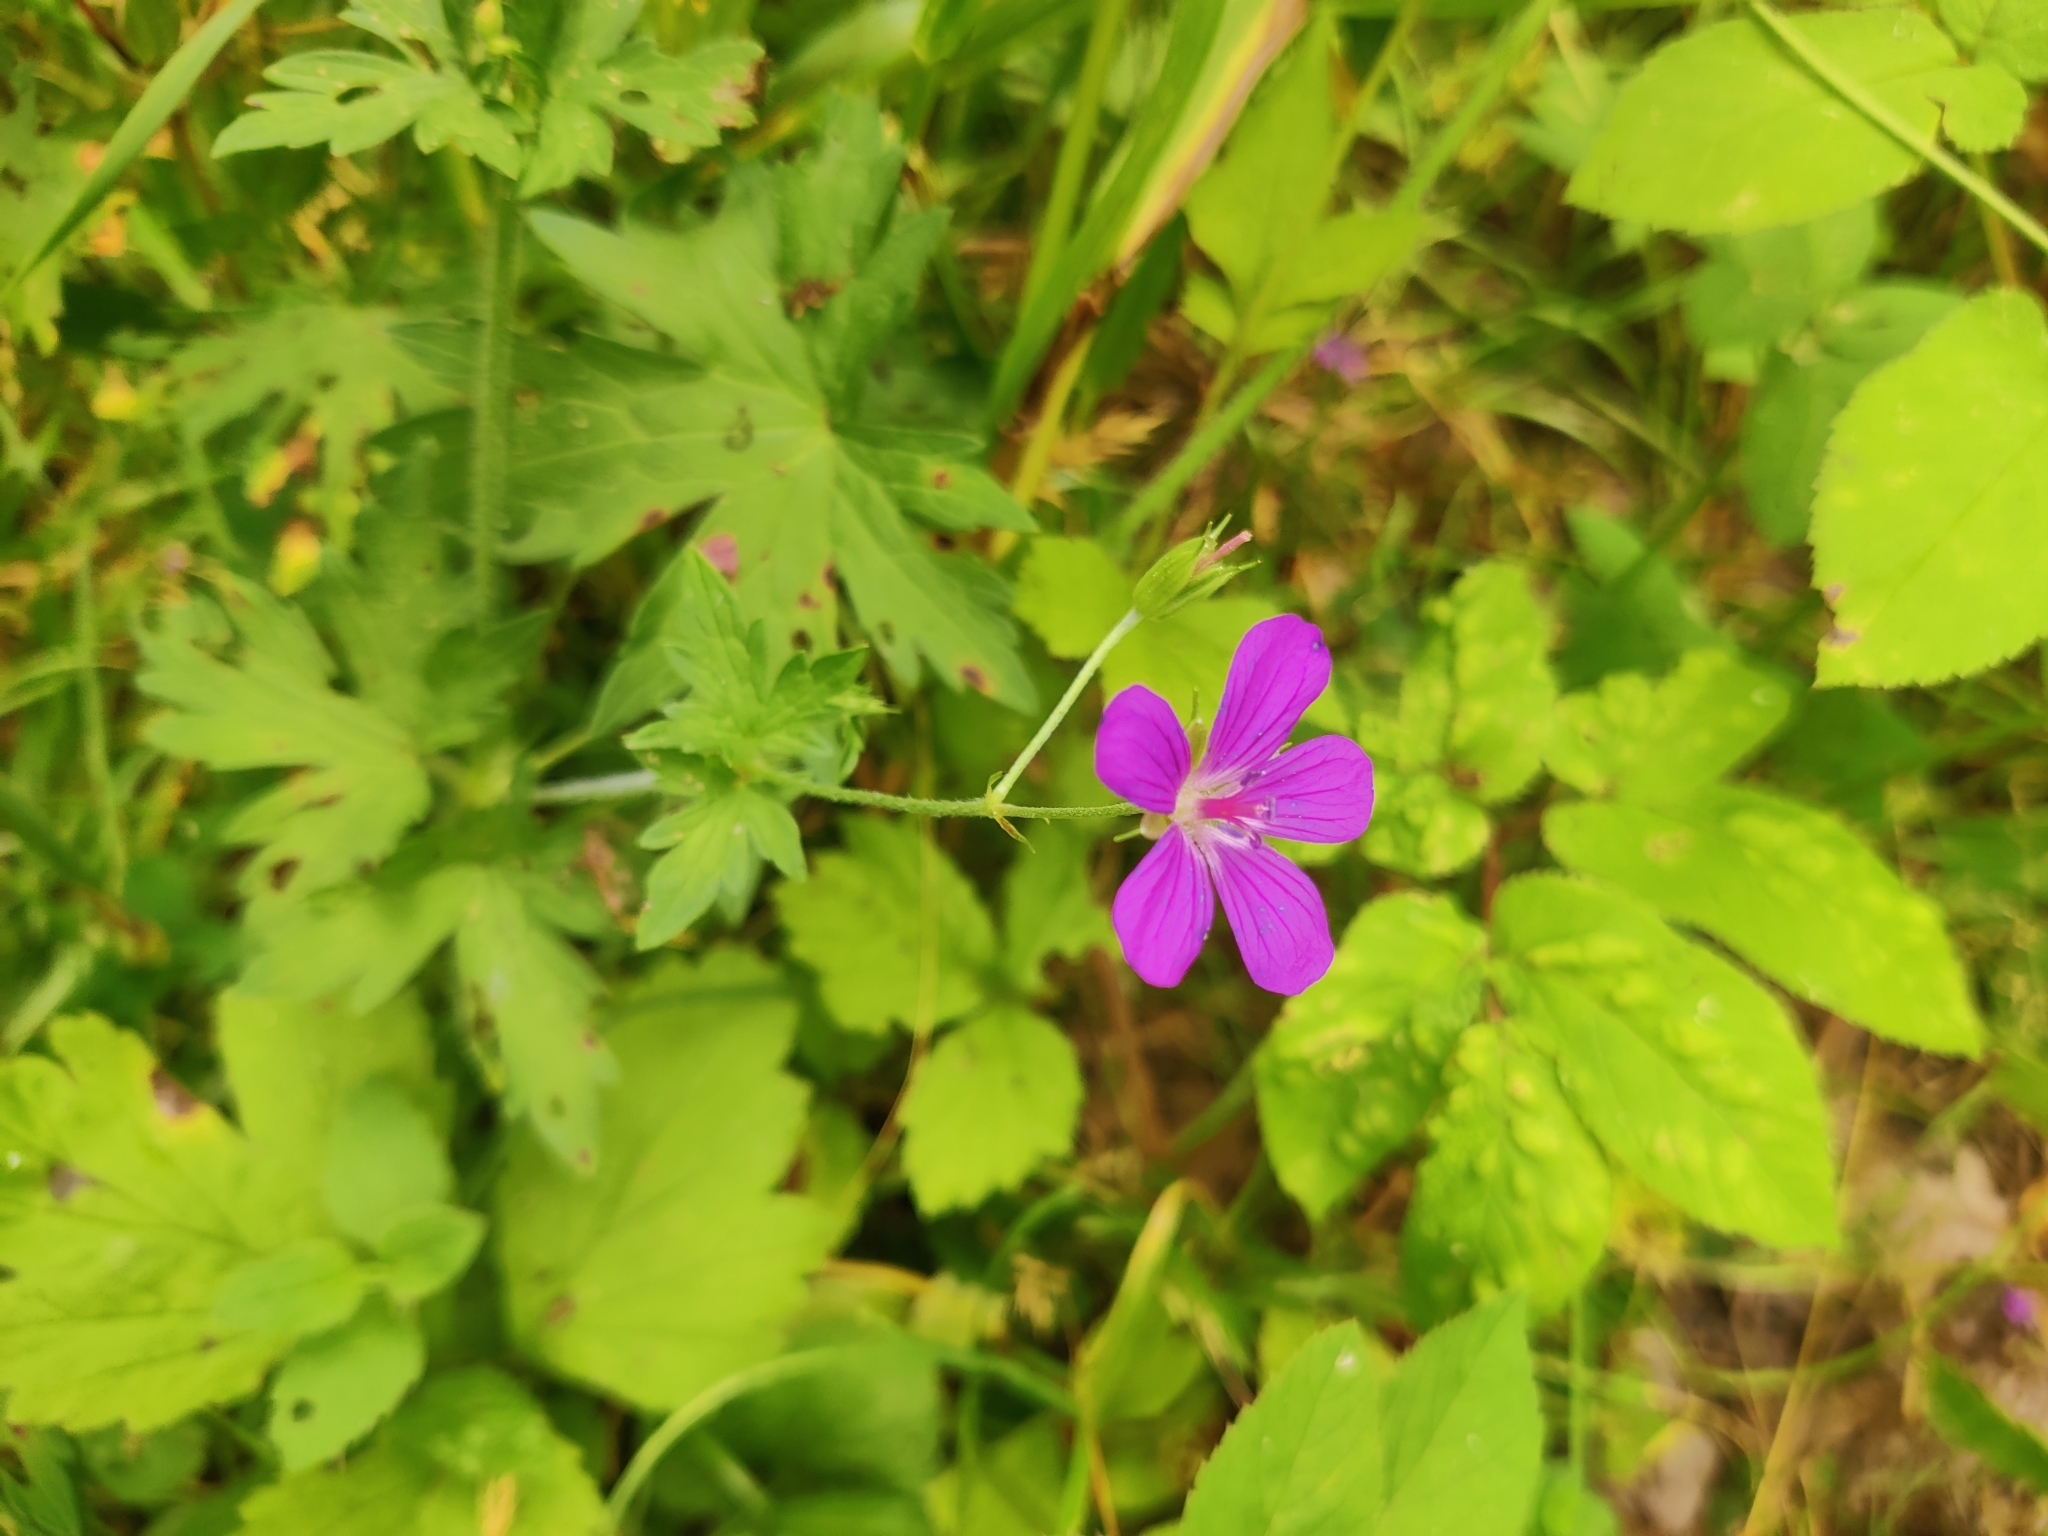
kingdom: Plantae
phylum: Tracheophyta
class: Magnoliopsida
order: Geraniales
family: Geraniaceae
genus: Geranium
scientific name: Geranium palustre
